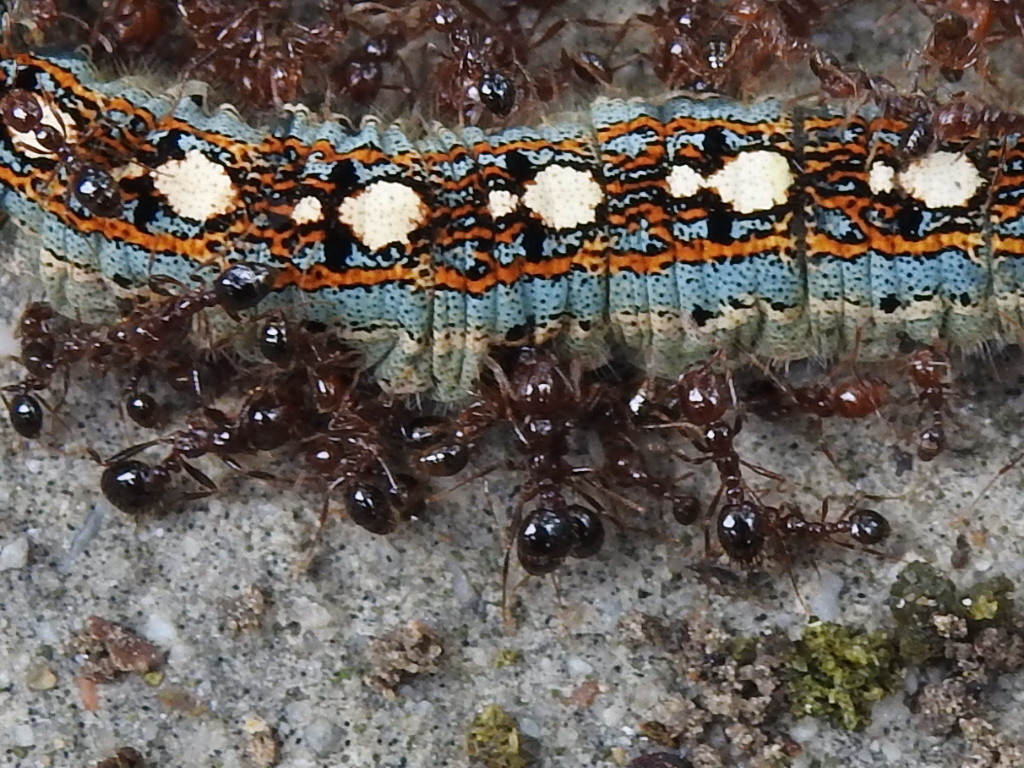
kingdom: Animalia
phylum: Arthropoda
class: Insecta
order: Hymenoptera
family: Formicidae
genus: Solenopsis
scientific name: Solenopsis invicta
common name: Red imported fire ant
